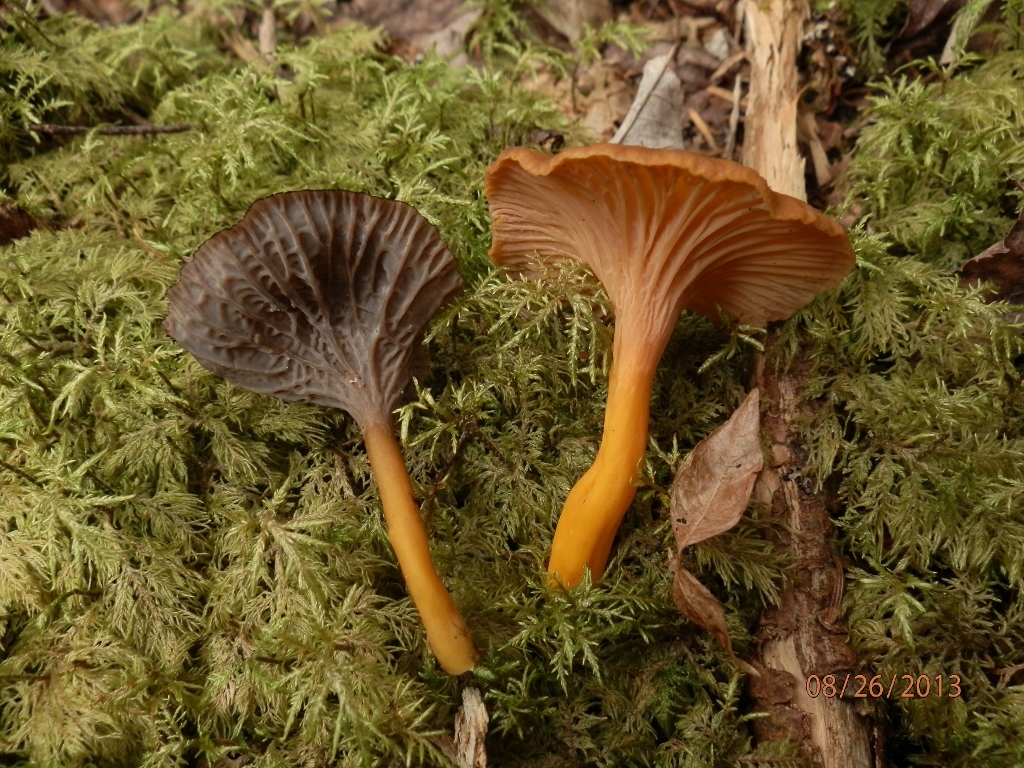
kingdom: Fungi
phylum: Basidiomycota
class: Agaricomycetes
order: Cantharellales
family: Hydnaceae
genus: Craterellus
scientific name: Craterellus tubaeformis
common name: Yellowfoot
